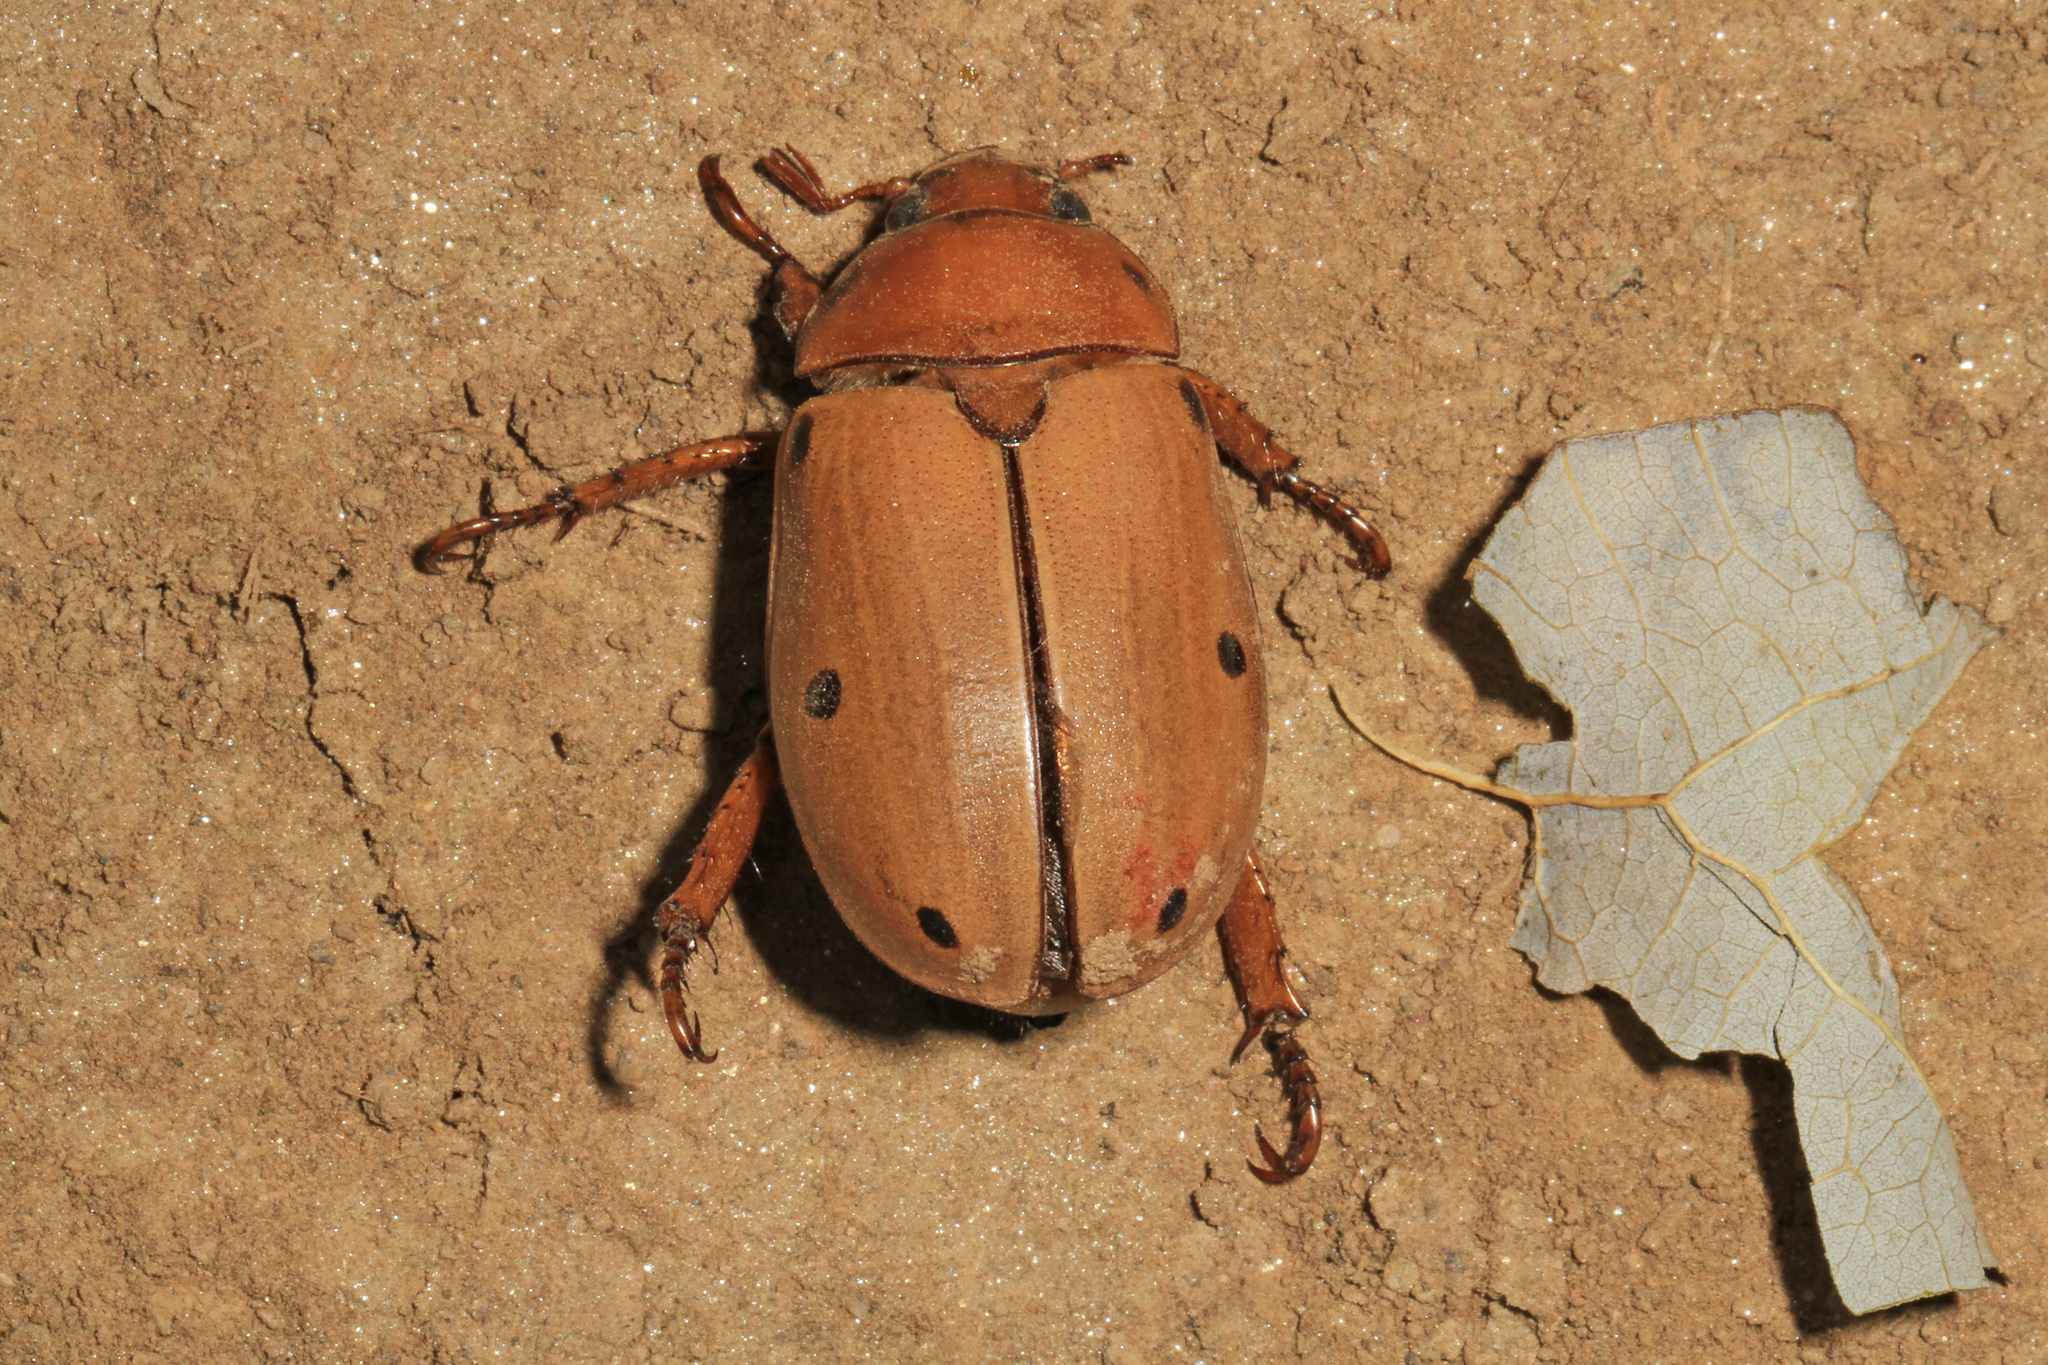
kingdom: Animalia
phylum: Arthropoda
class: Insecta
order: Coleoptera
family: Scarabaeidae
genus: Pelidnota
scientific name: Pelidnota punctata
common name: Grapevine beetle
